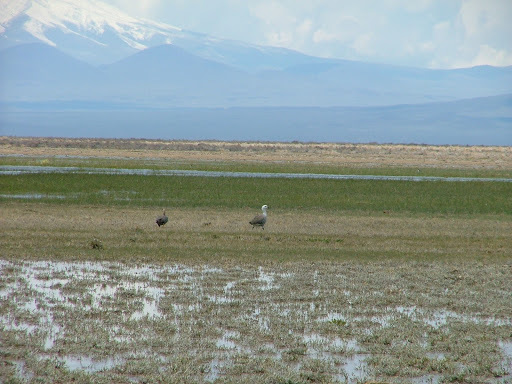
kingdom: Animalia
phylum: Chordata
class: Aves
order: Anseriformes
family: Anatidae
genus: Chloephaga
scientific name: Chloephaga picta
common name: Upland goose
